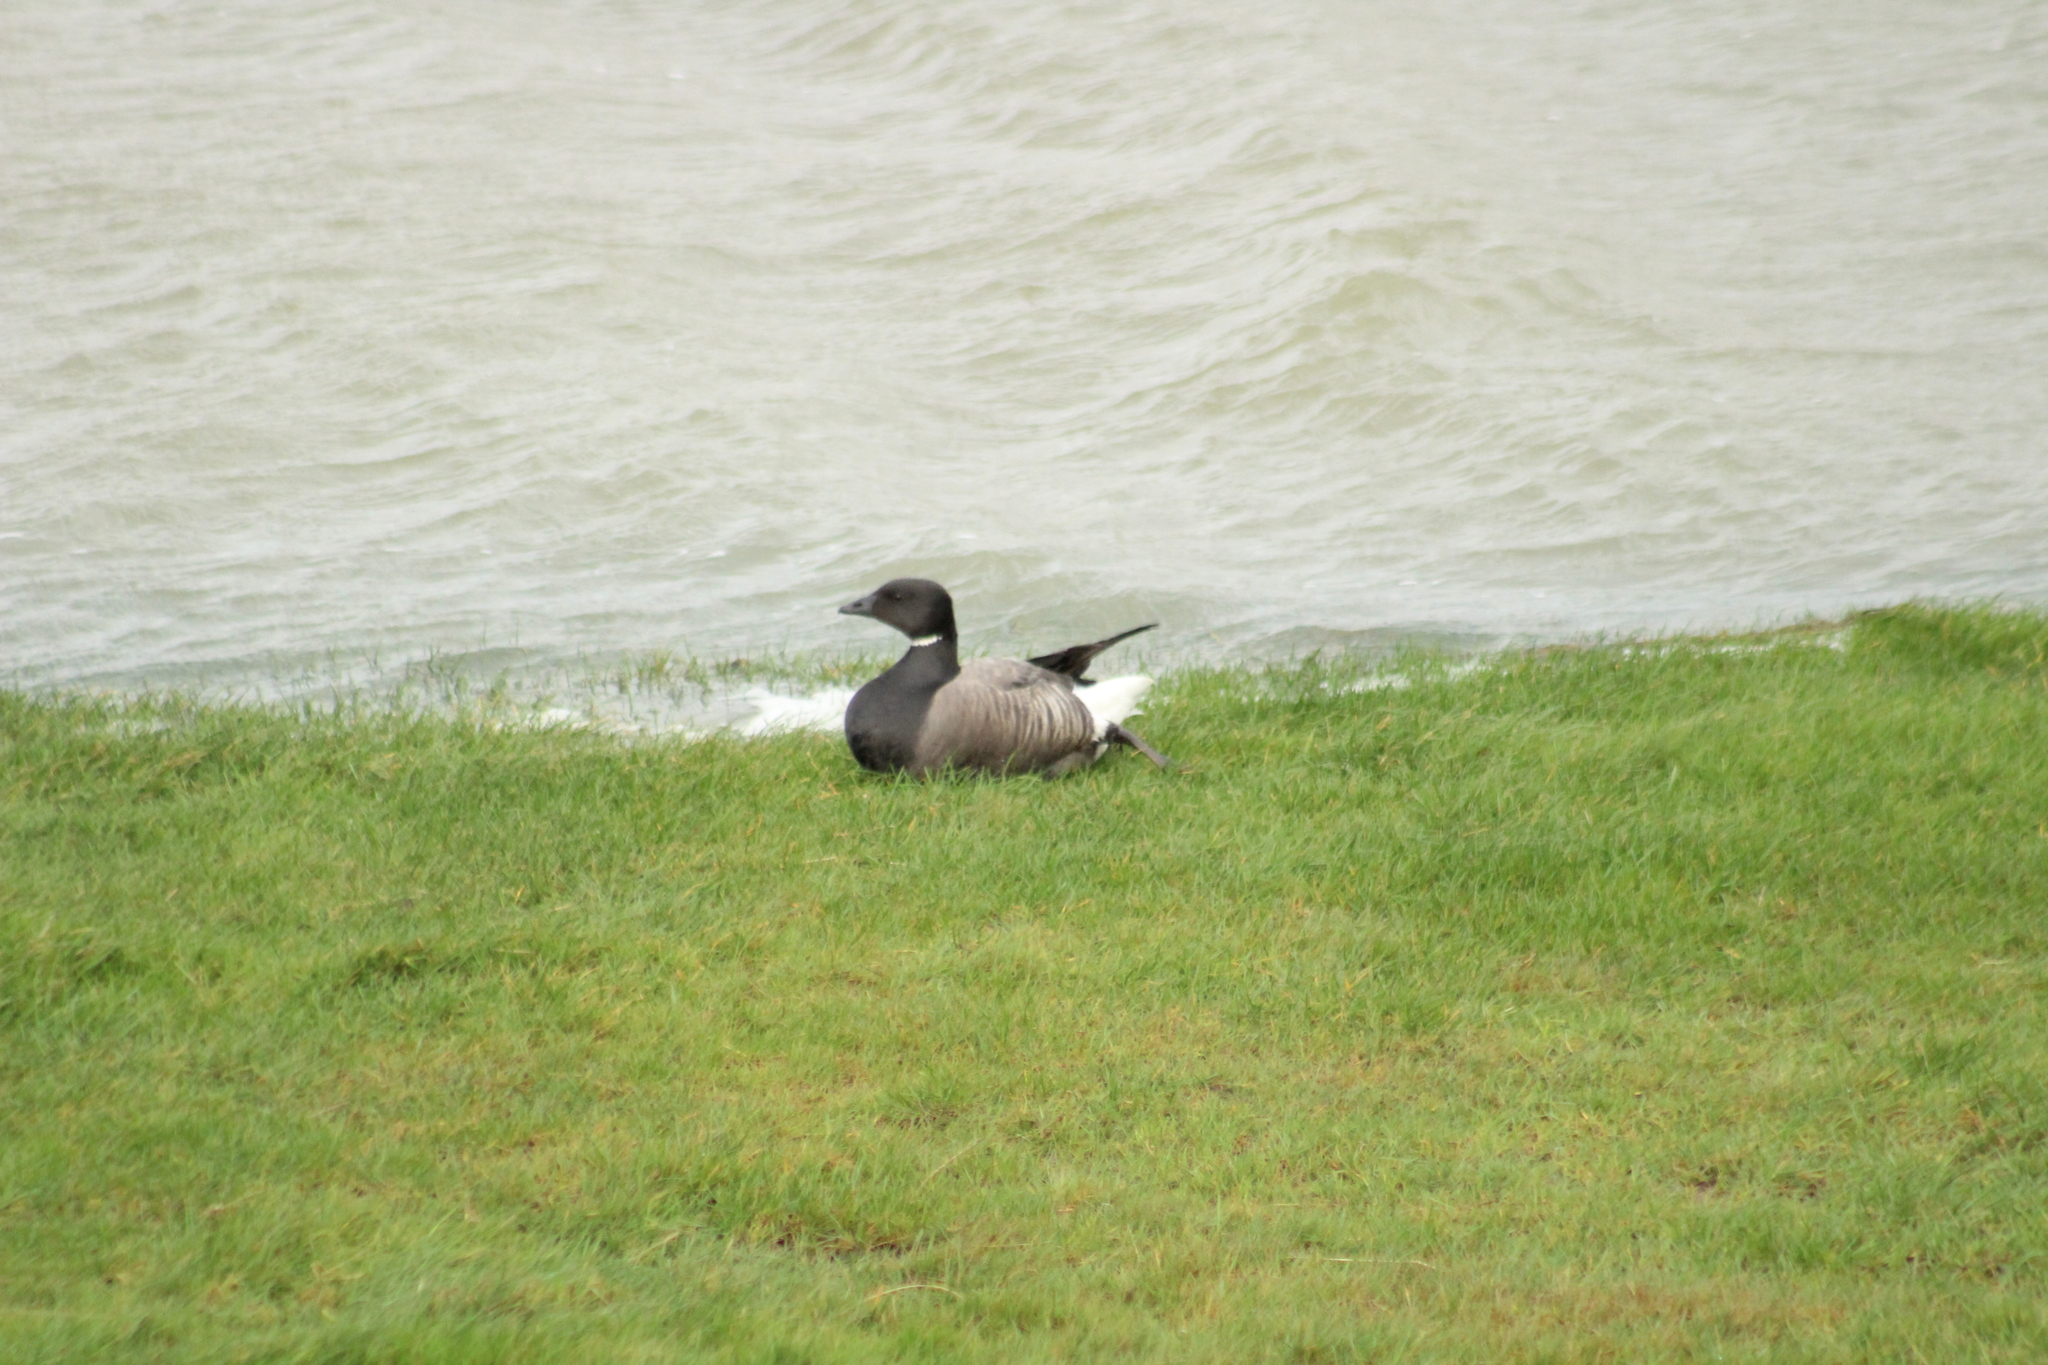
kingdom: Animalia
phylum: Chordata
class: Aves
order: Anseriformes
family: Anatidae
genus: Branta
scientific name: Branta bernicla
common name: Brant goose
